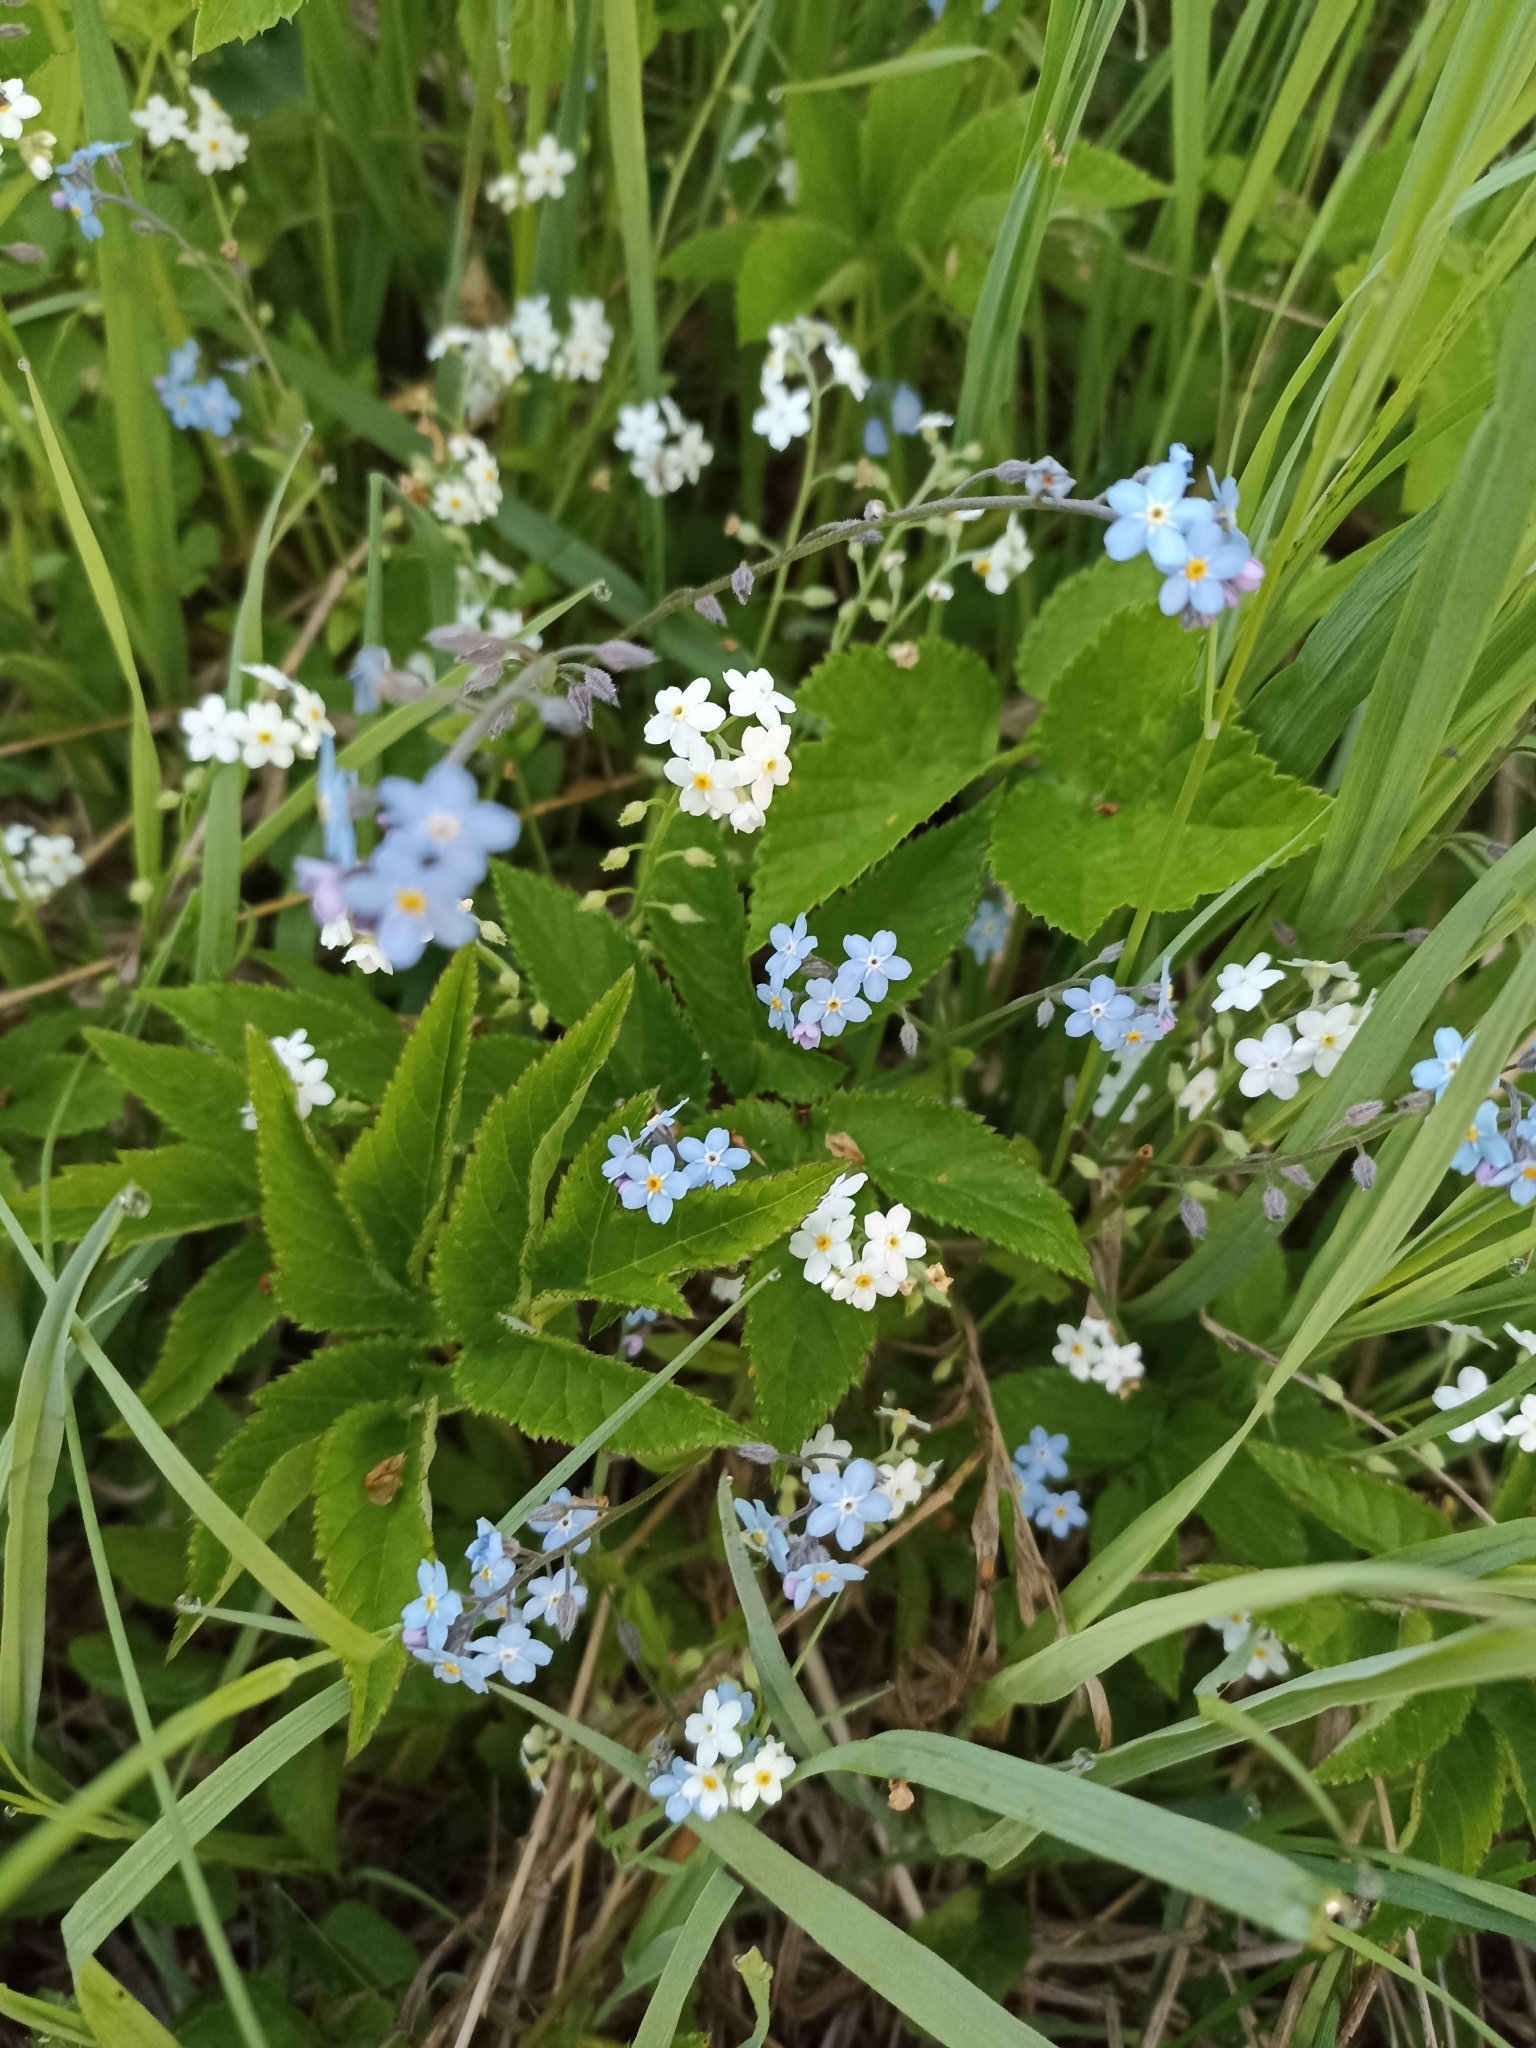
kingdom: Plantae
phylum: Tracheophyta
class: Magnoliopsida
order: Boraginales
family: Boraginaceae
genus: Myosotis
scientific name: Myosotis sylvatica
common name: Wood forget-me-not
